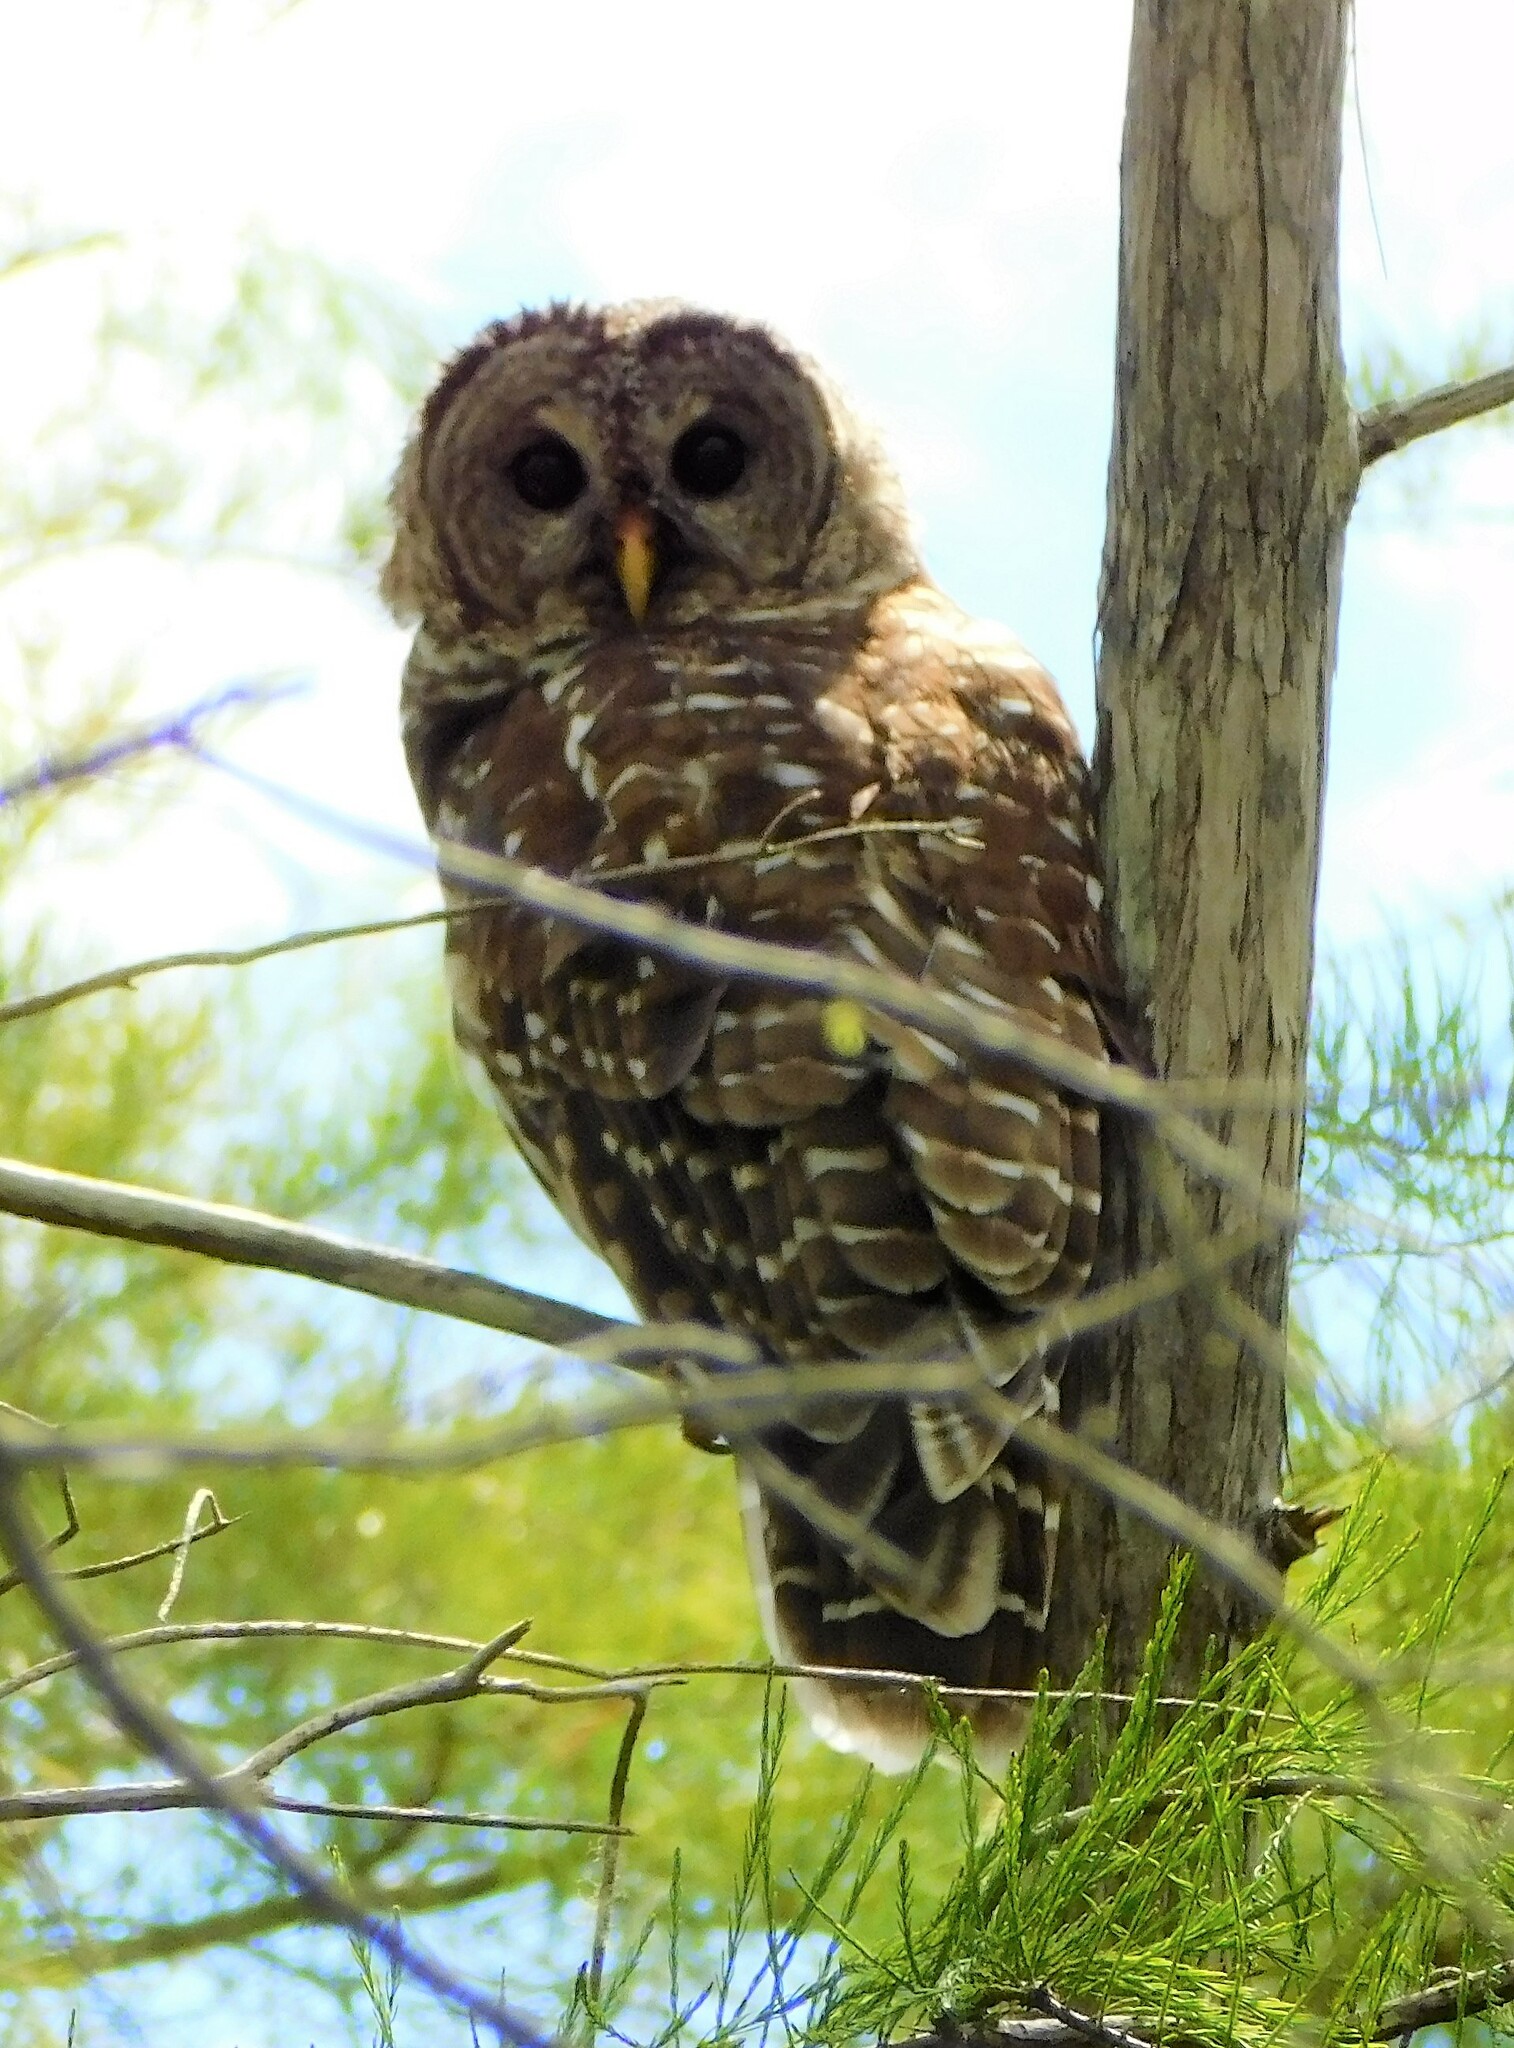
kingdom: Animalia
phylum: Chordata
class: Aves
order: Strigiformes
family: Strigidae
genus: Strix
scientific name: Strix varia
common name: Barred owl
